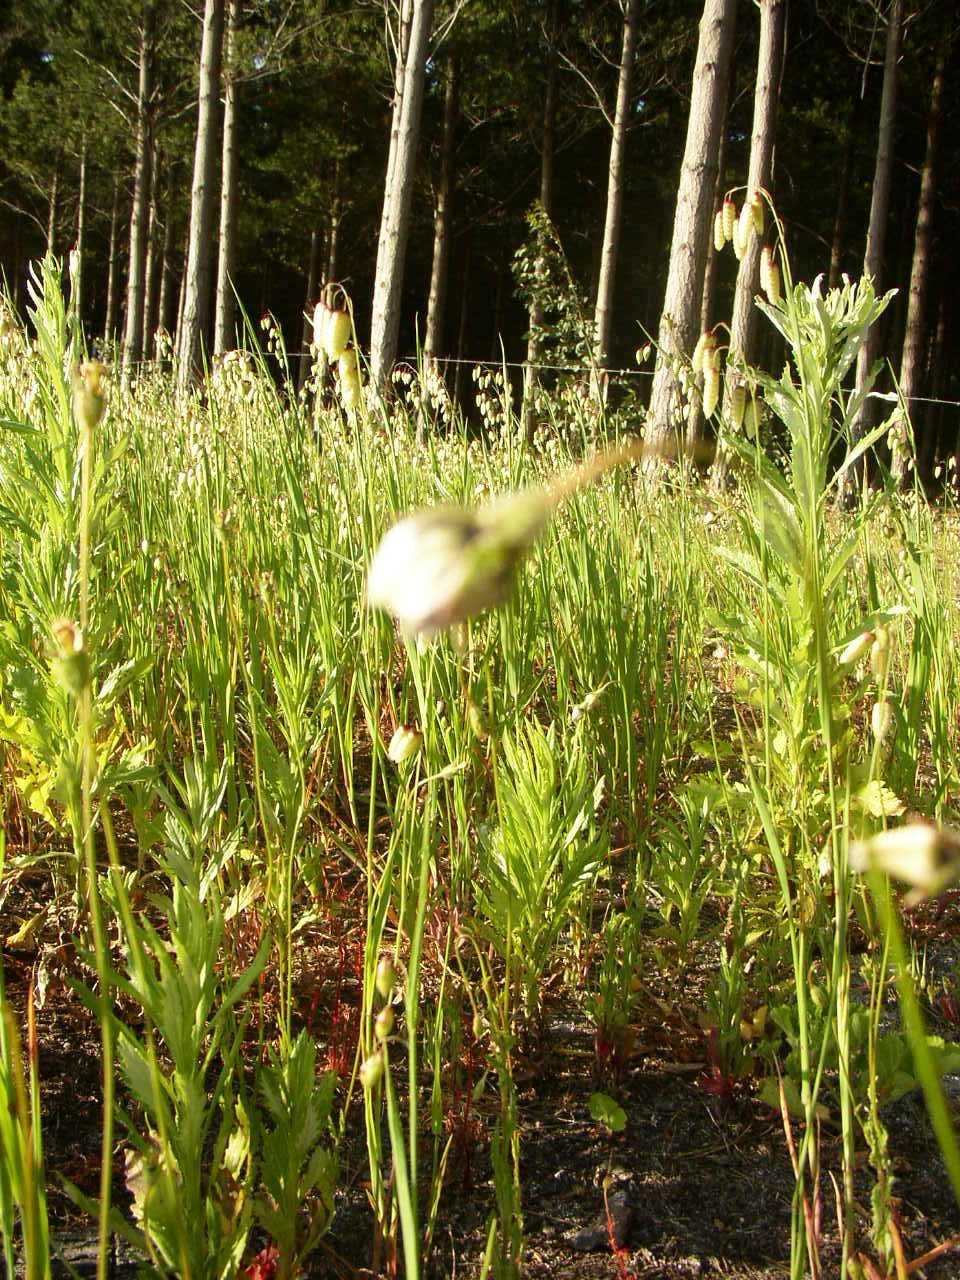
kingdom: Plantae
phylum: Tracheophyta
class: Magnoliopsida
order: Asterales
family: Campanulaceae
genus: Wahlenbergia
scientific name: Wahlenbergia capensis
